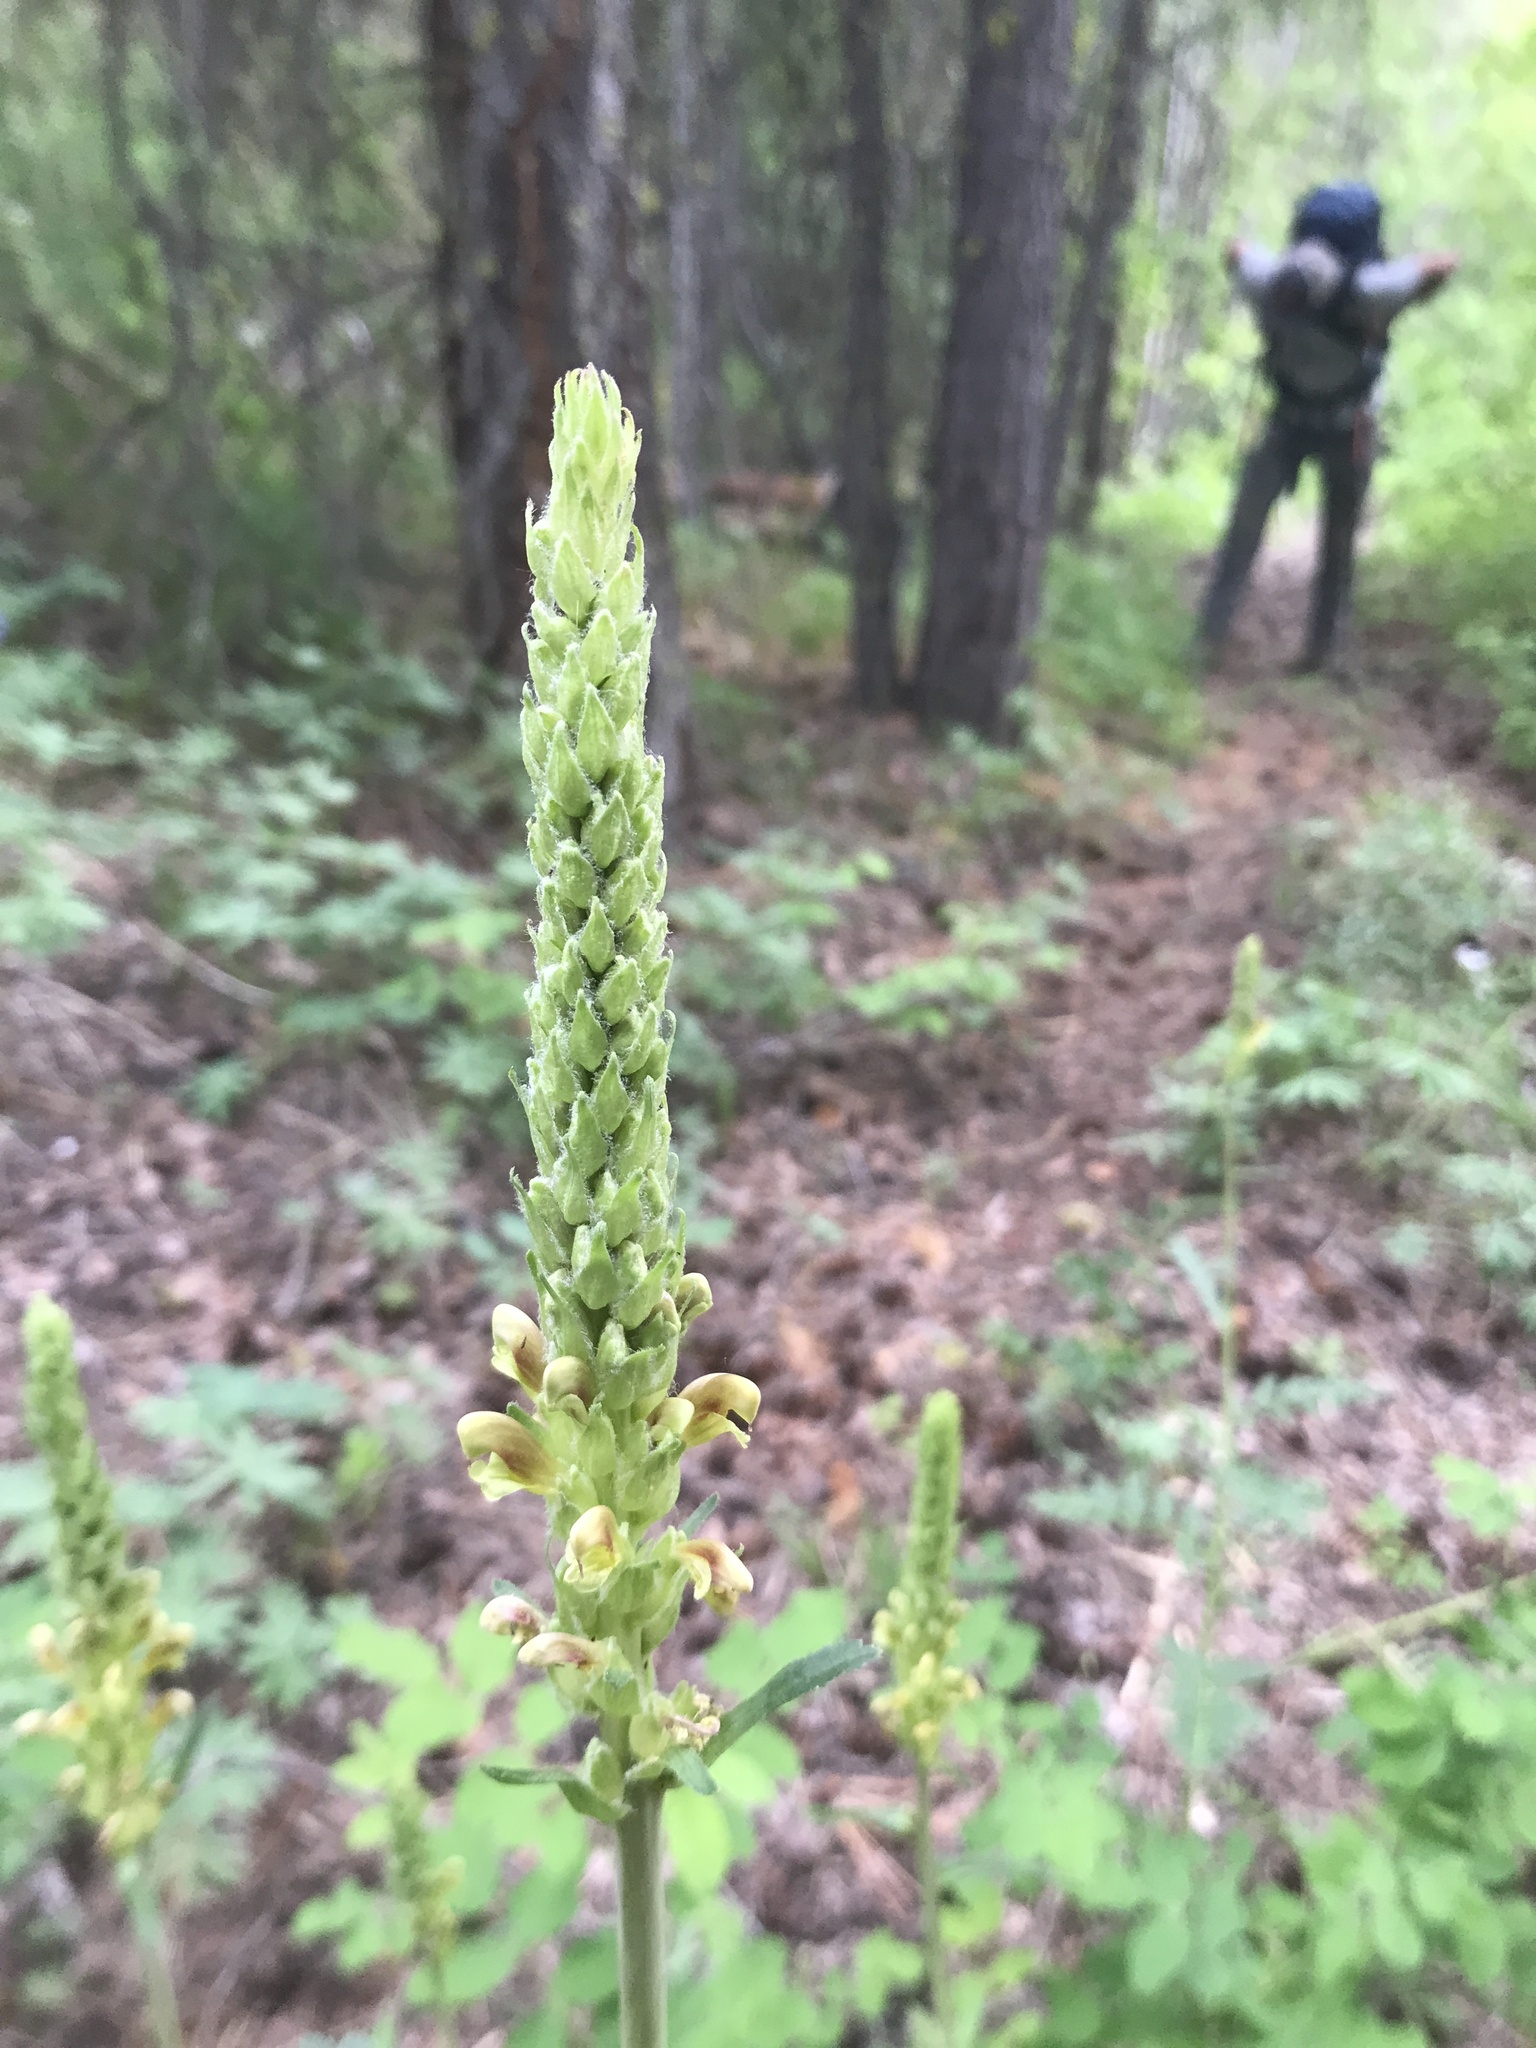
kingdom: Plantae
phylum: Tracheophyta
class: Magnoliopsida
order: Lamiales
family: Orobanchaceae
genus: Pedicularis
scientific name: Pedicularis bracteosa
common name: Bracted lousewort
